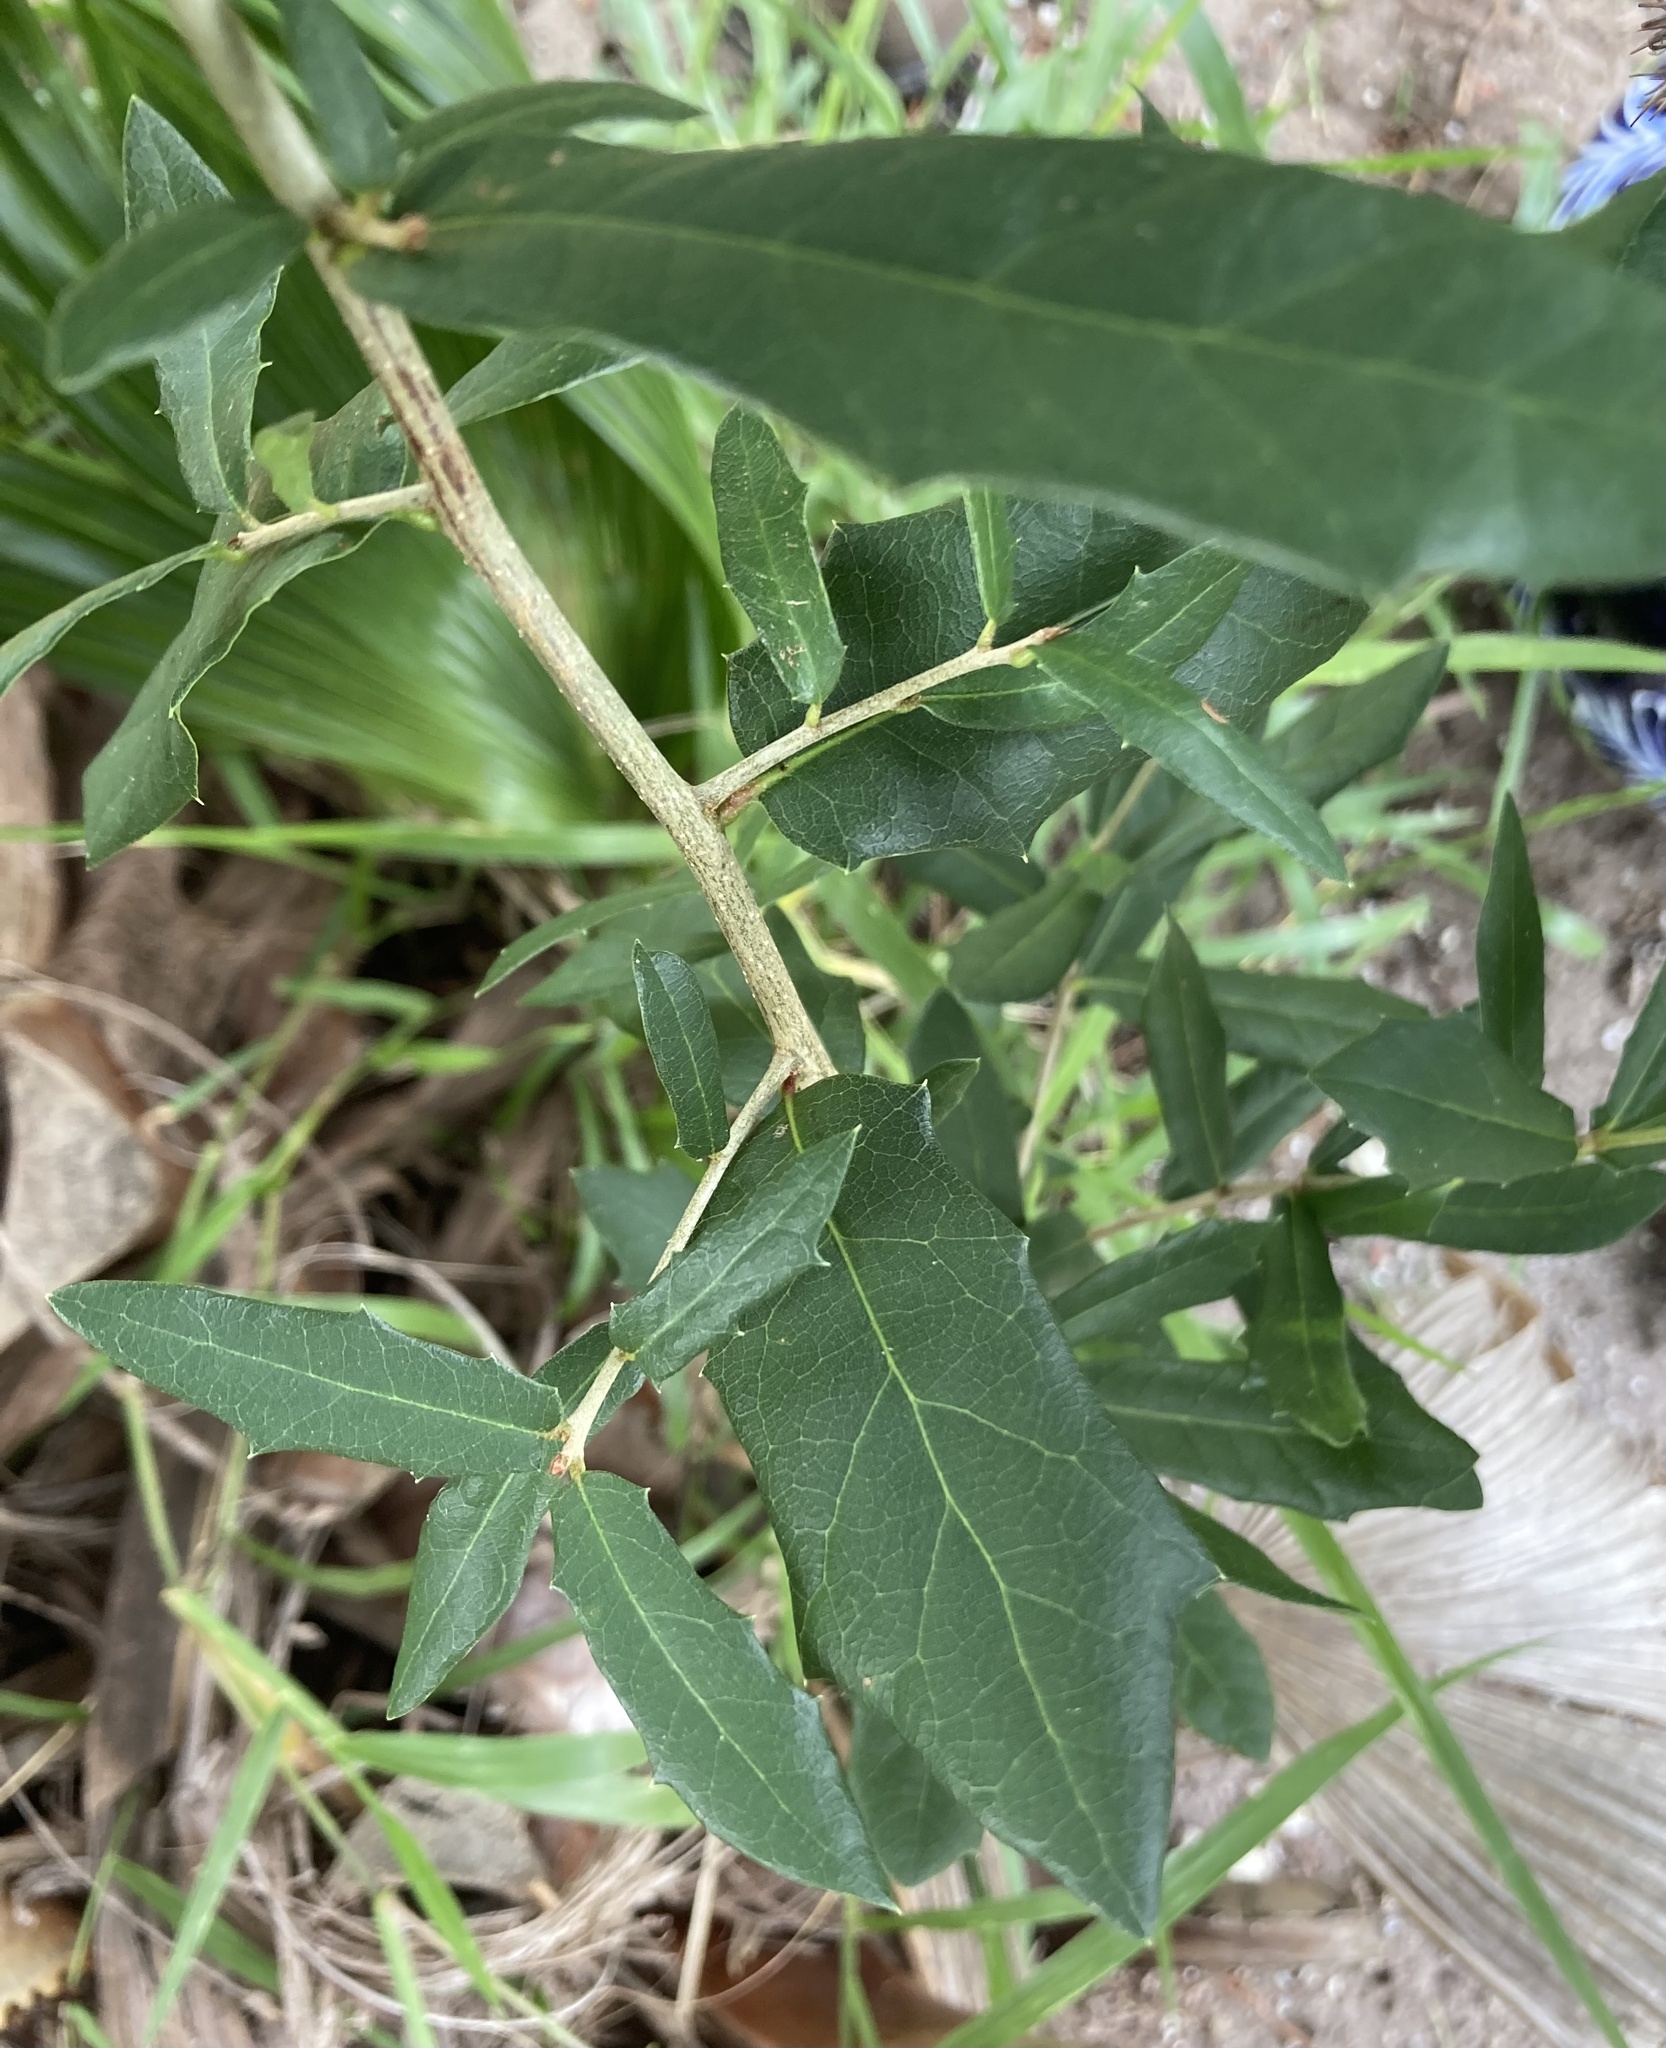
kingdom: Plantae
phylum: Tracheophyta
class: Magnoliopsida
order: Fagales
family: Fagaceae
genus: Quercus
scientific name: Quercus virginiana
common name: Southern live oak
